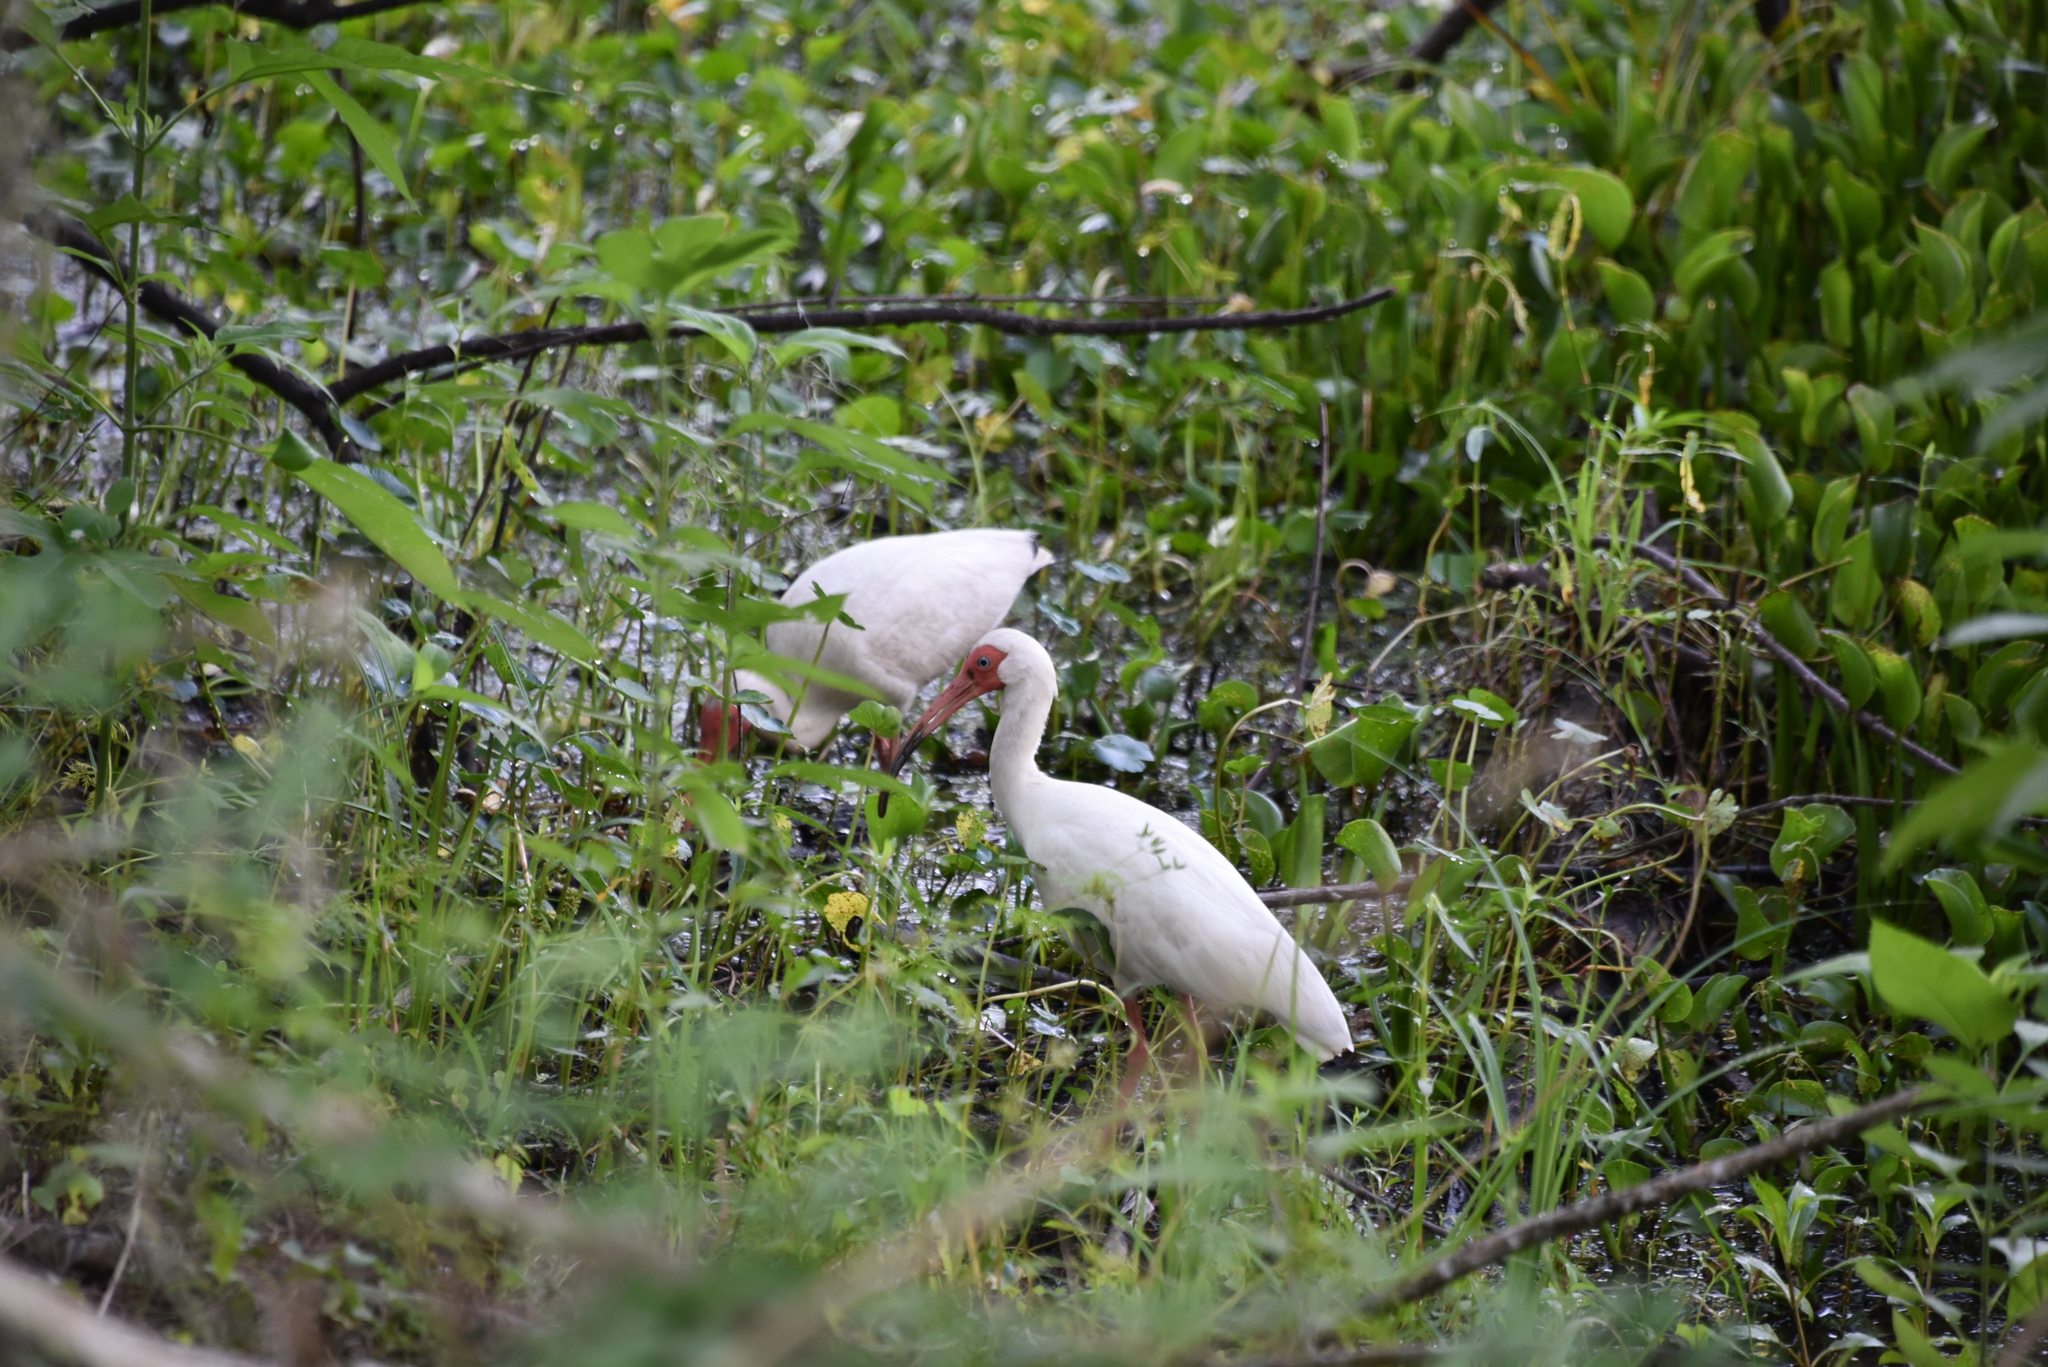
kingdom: Animalia
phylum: Chordata
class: Aves
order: Pelecaniformes
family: Threskiornithidae
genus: Eudocimus
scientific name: Eudocimus albus
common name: White ibis
